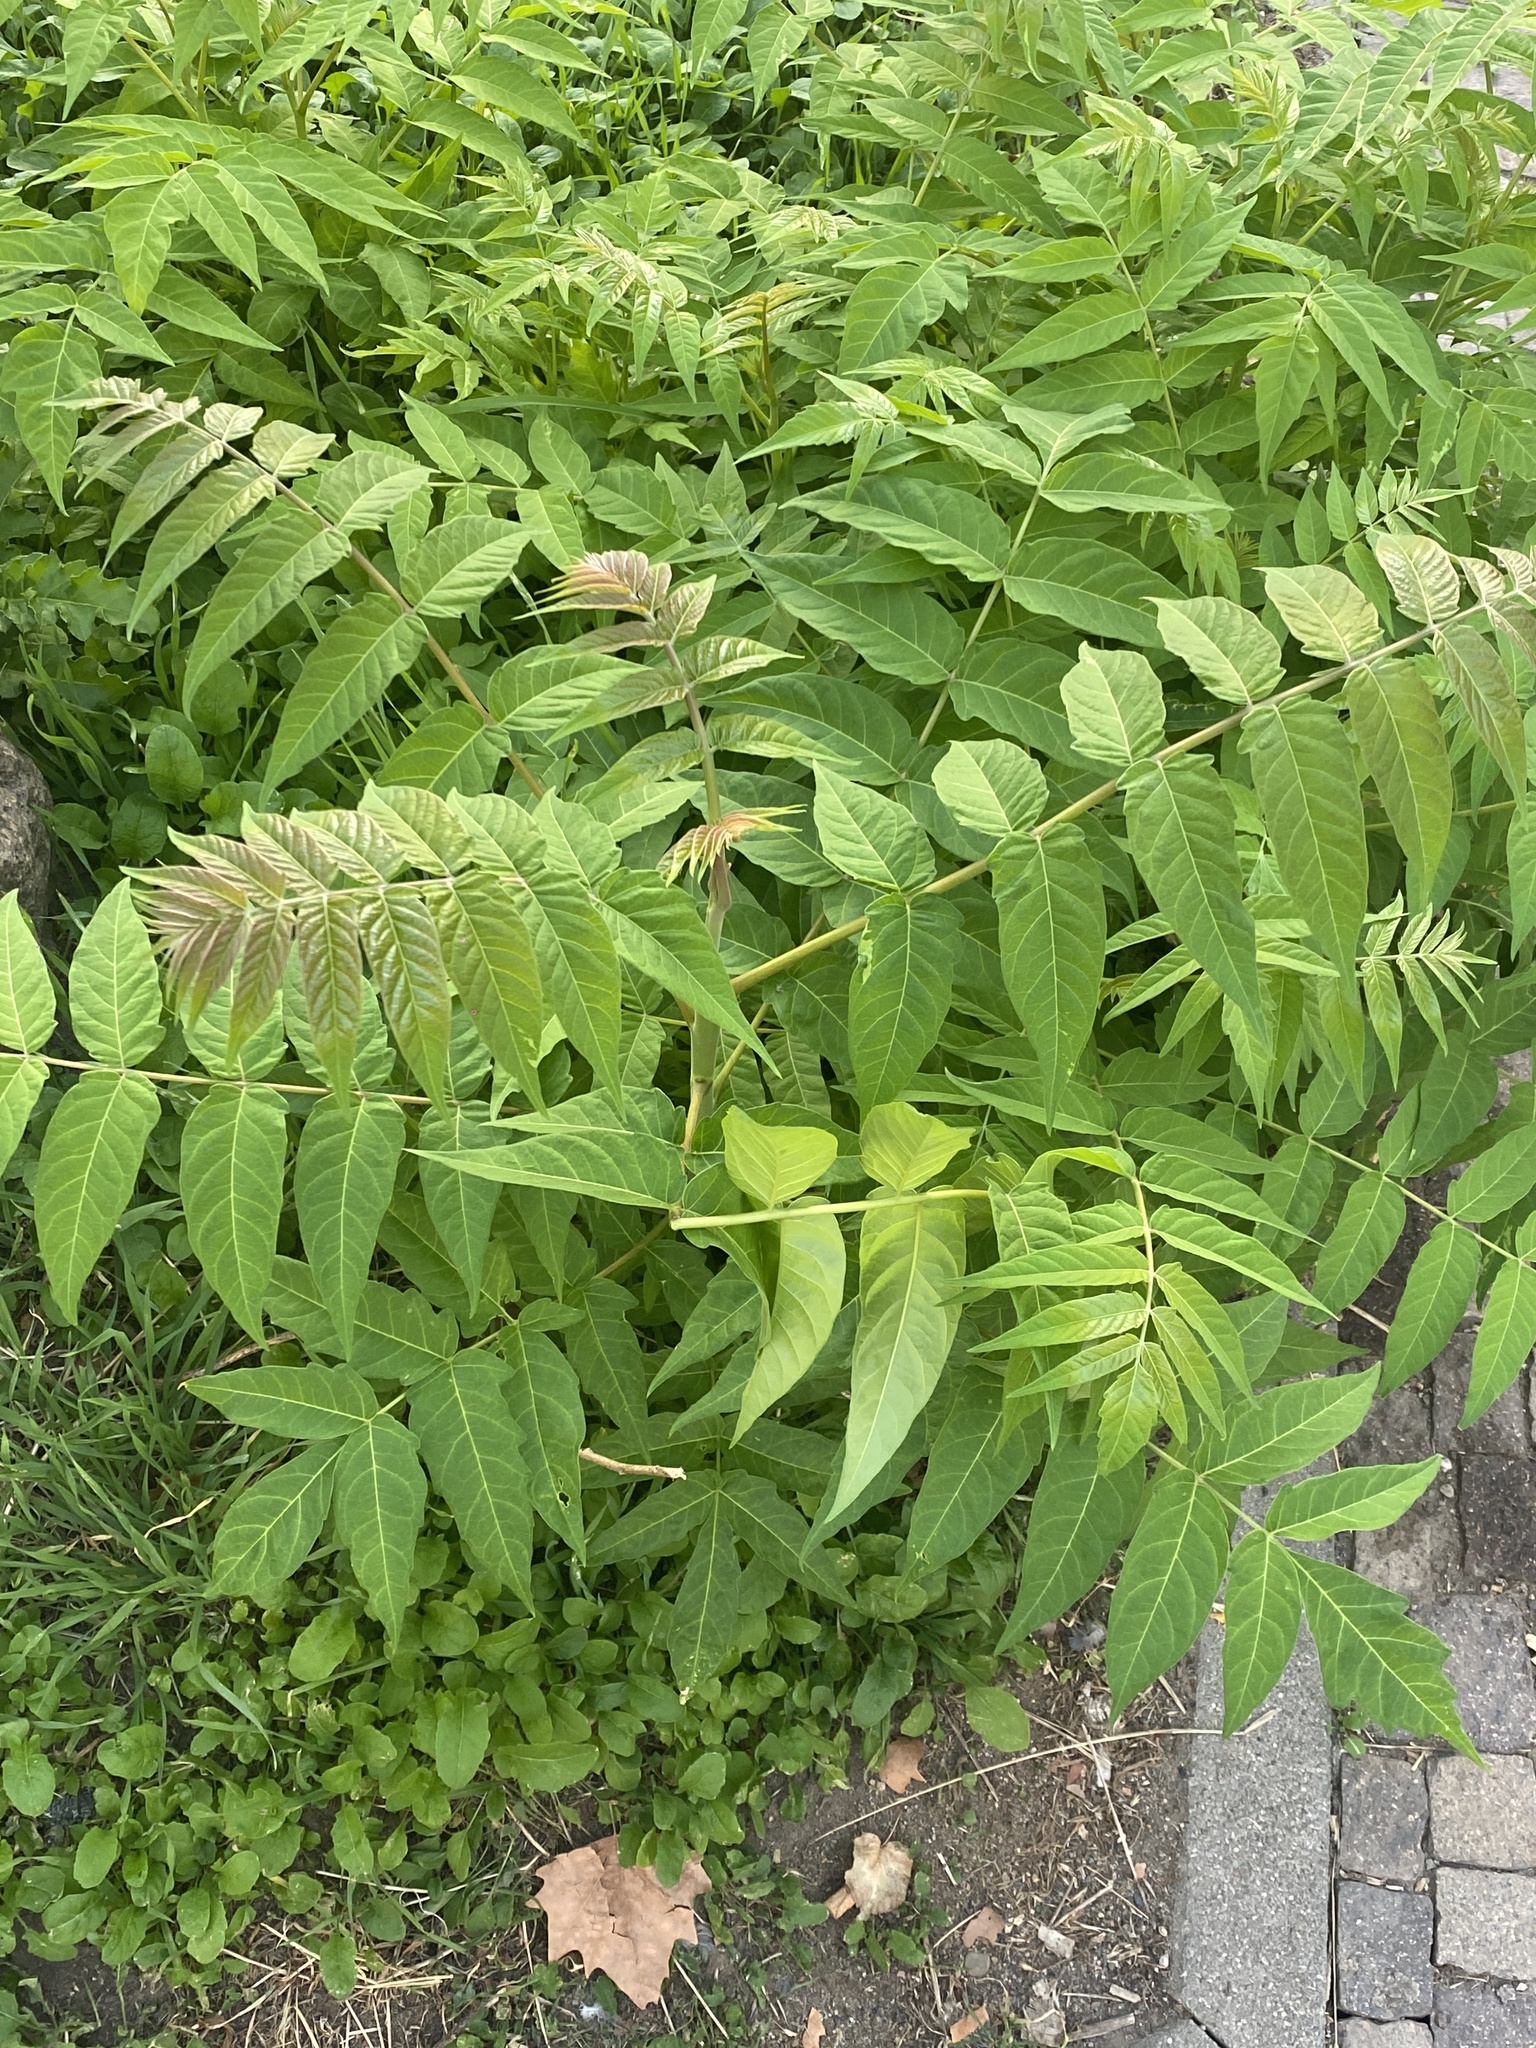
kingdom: Plantae
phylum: Tracheophyta
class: Magnoliopsida
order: Sapindales
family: Simaroubaceae
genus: Ailanthus
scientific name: Ailanthus altissima
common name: Tree-of-heaven
